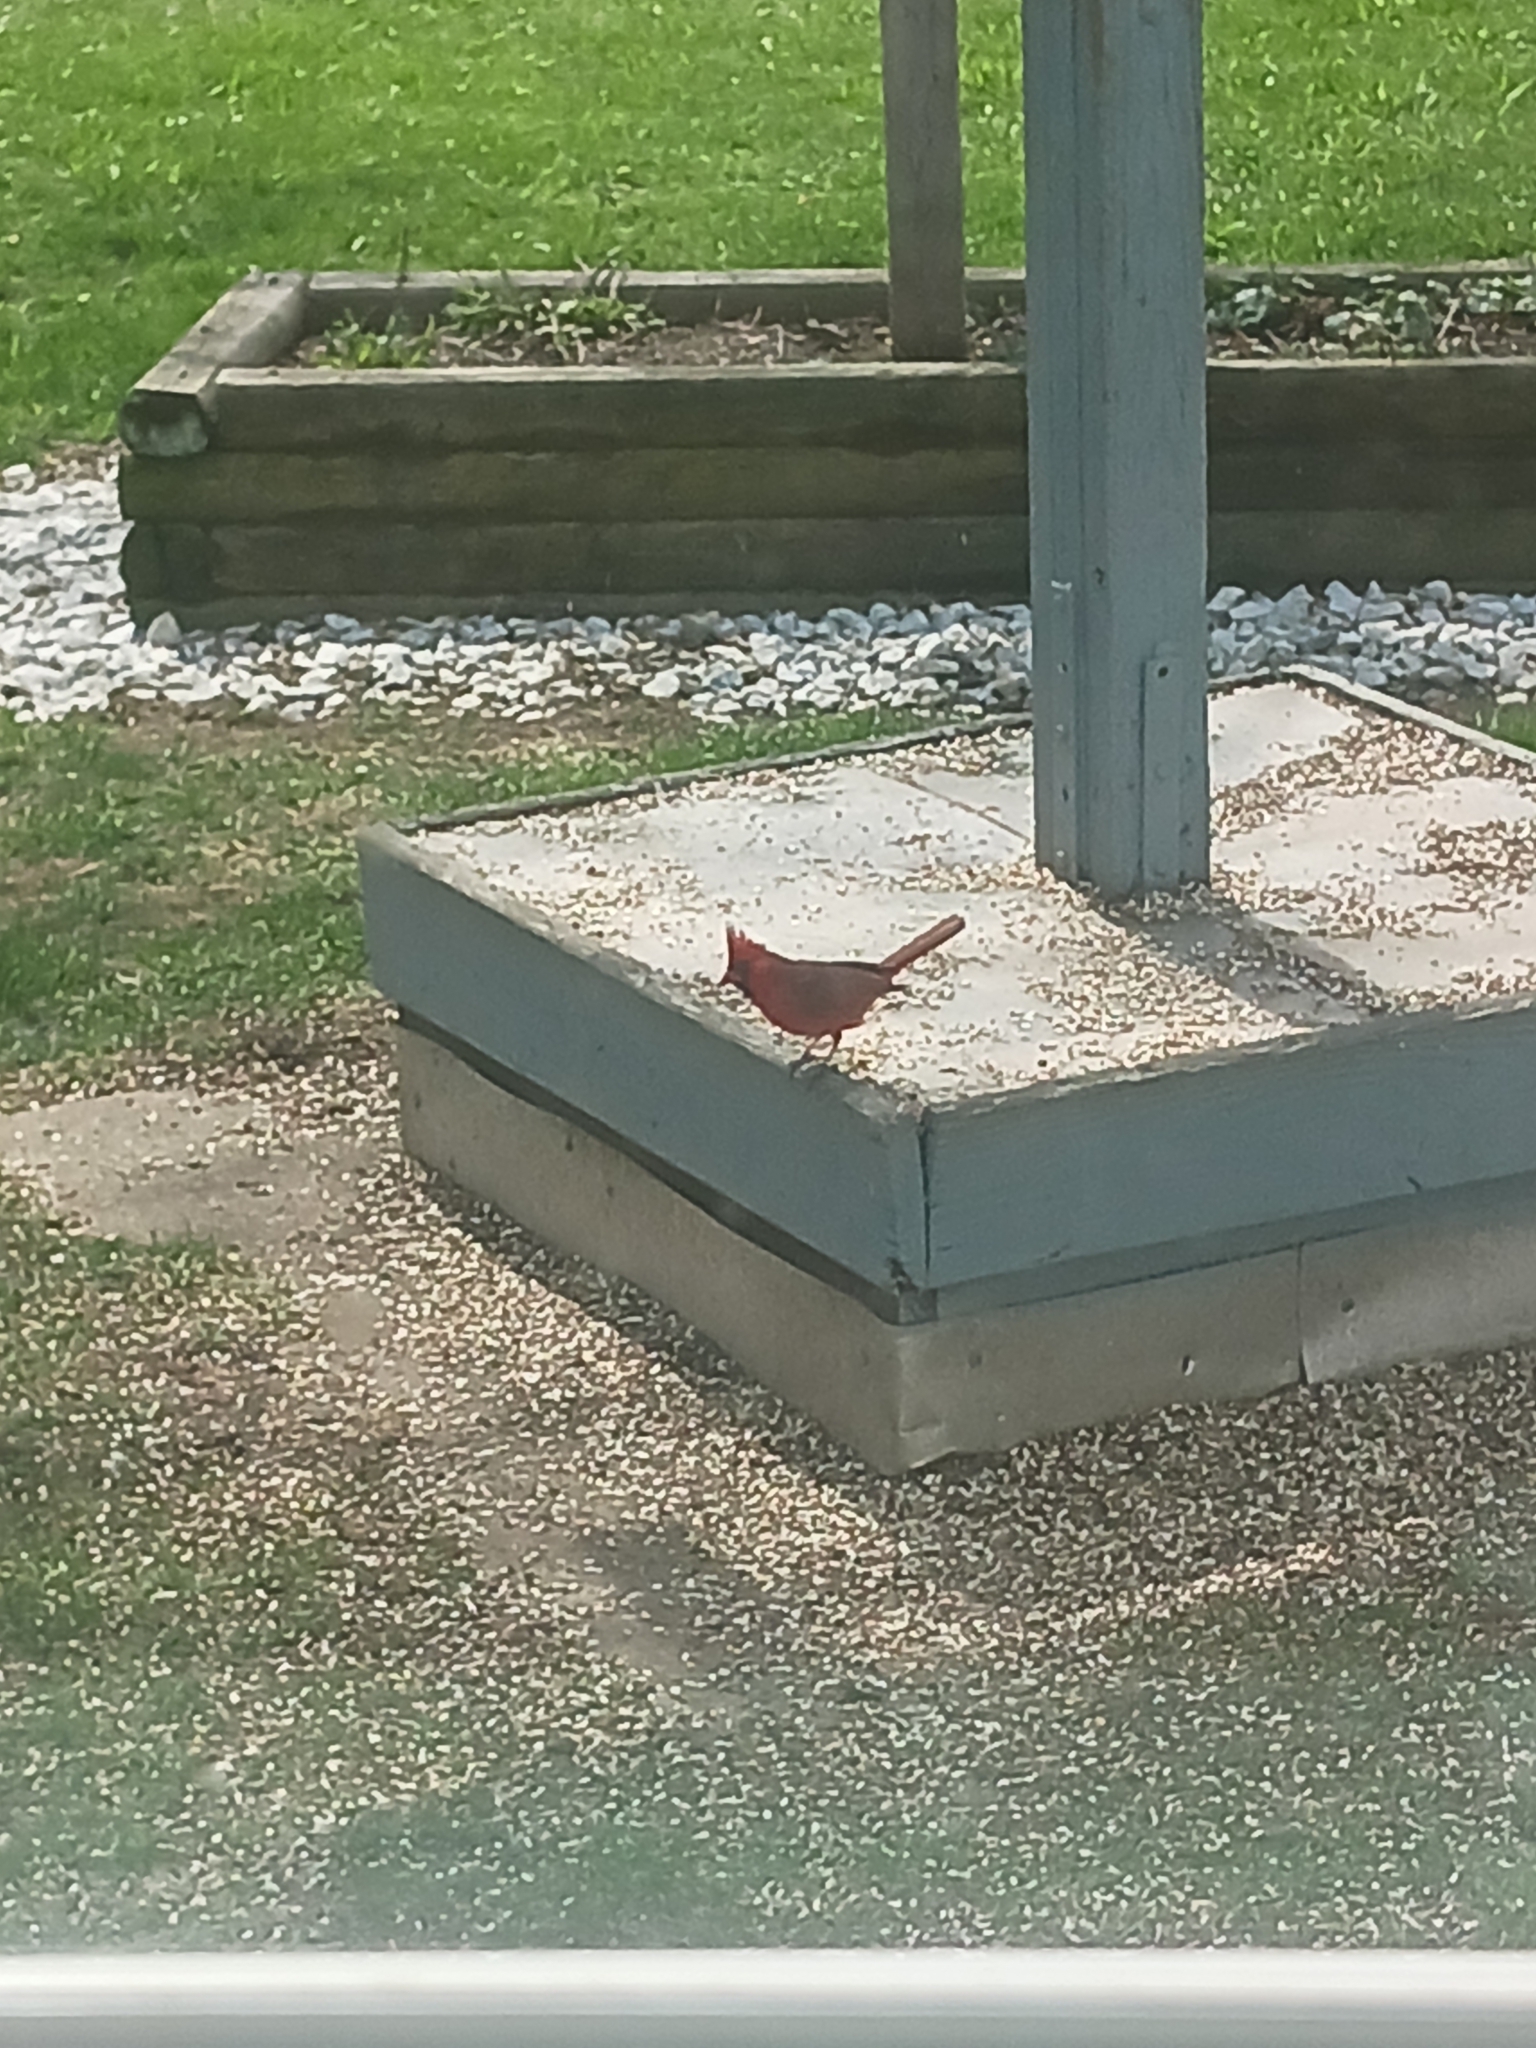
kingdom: Animalia
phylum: Chordata
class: Aves
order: Passeriformes
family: Cardinalidae
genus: Cardinalis
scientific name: Cardinalis cardinalis
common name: Northern cardinal
